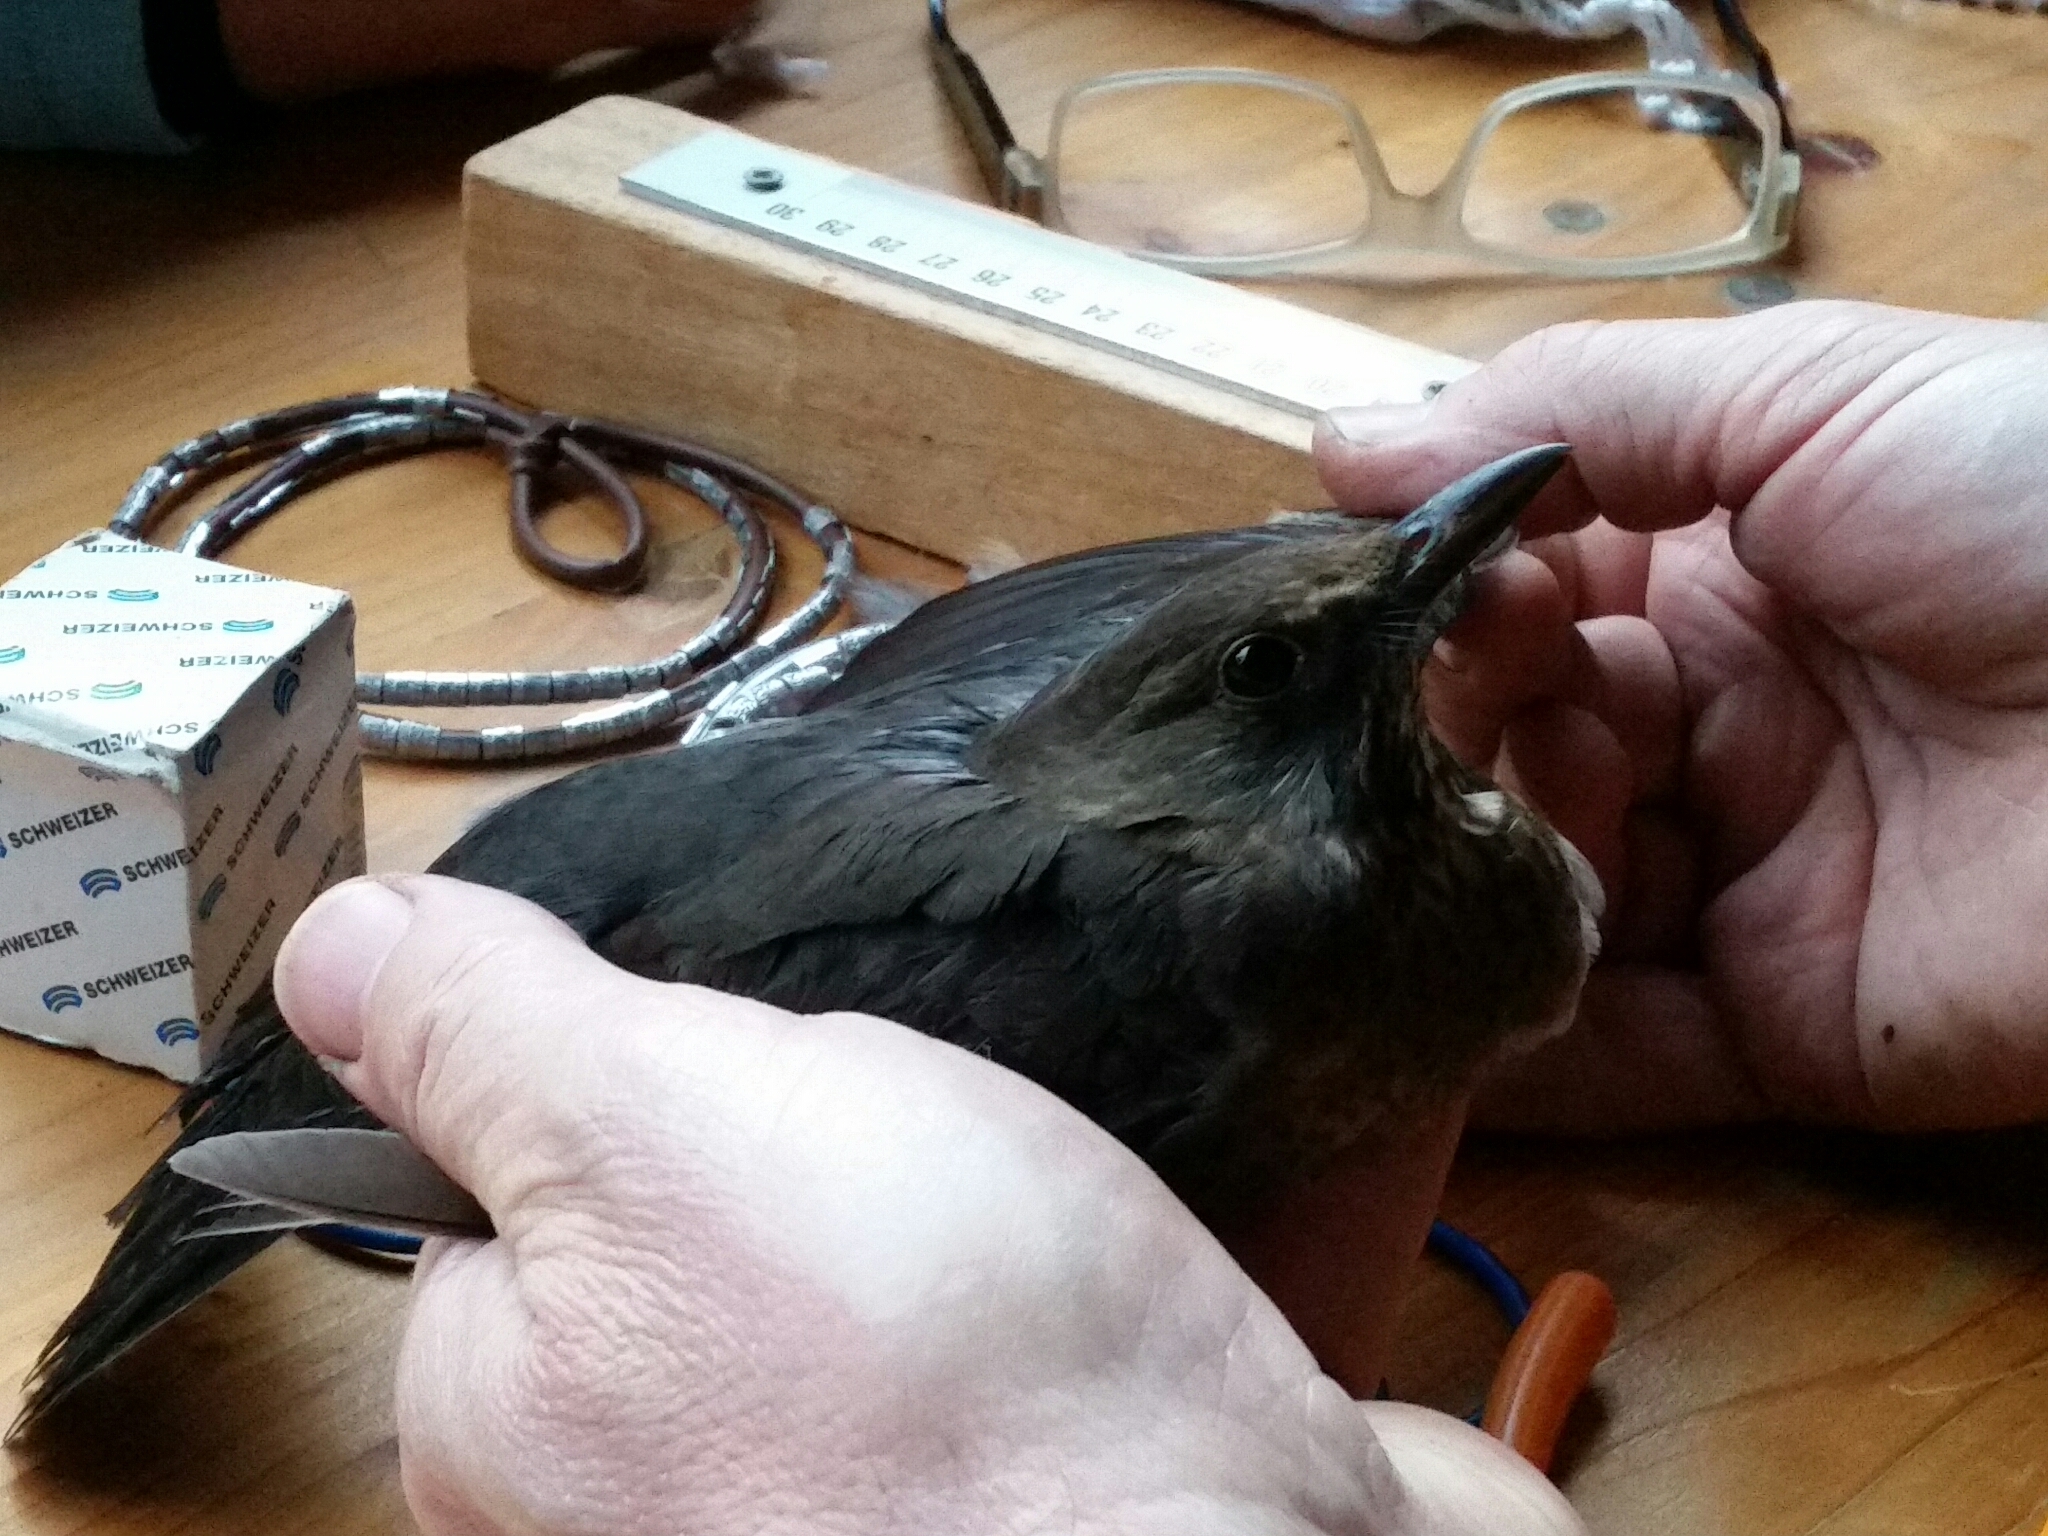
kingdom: Animalia
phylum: Chordata
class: Aves
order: Passeriformes
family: Turdidae
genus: Turdus
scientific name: Turdus merula
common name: Common blackbird
